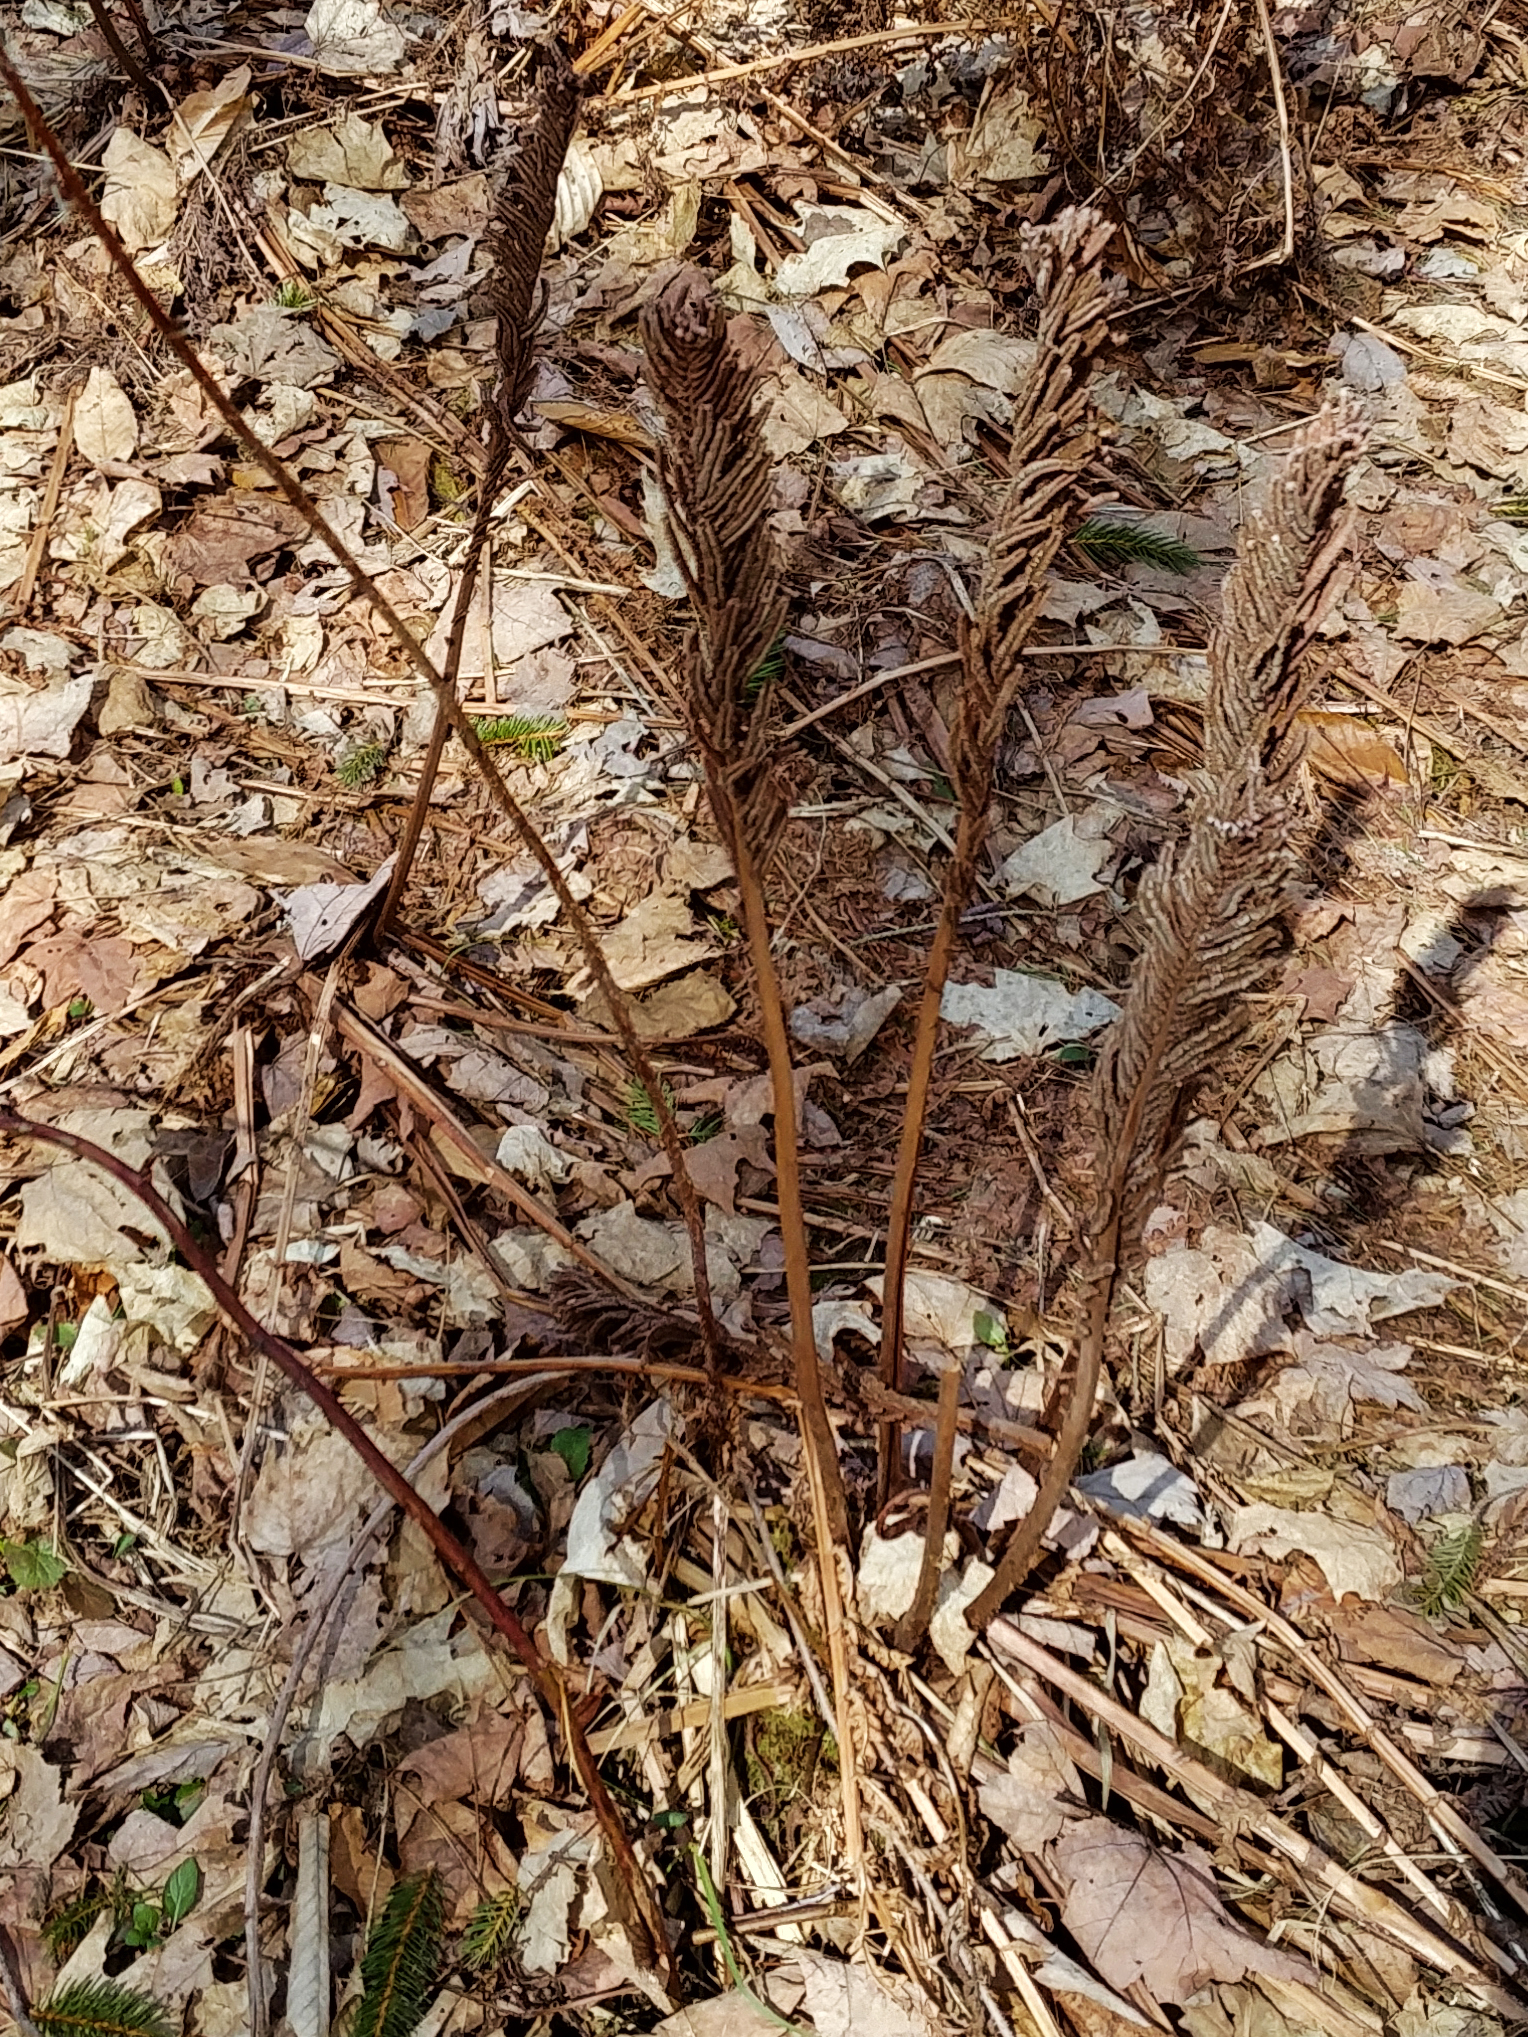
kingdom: Plantae
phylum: Tracheophyta
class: Polypodiopsida
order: Polypodiales
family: Onocleaceae
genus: Matteuccia
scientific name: Matteuccia struthiopteris
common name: Ostrich fern
